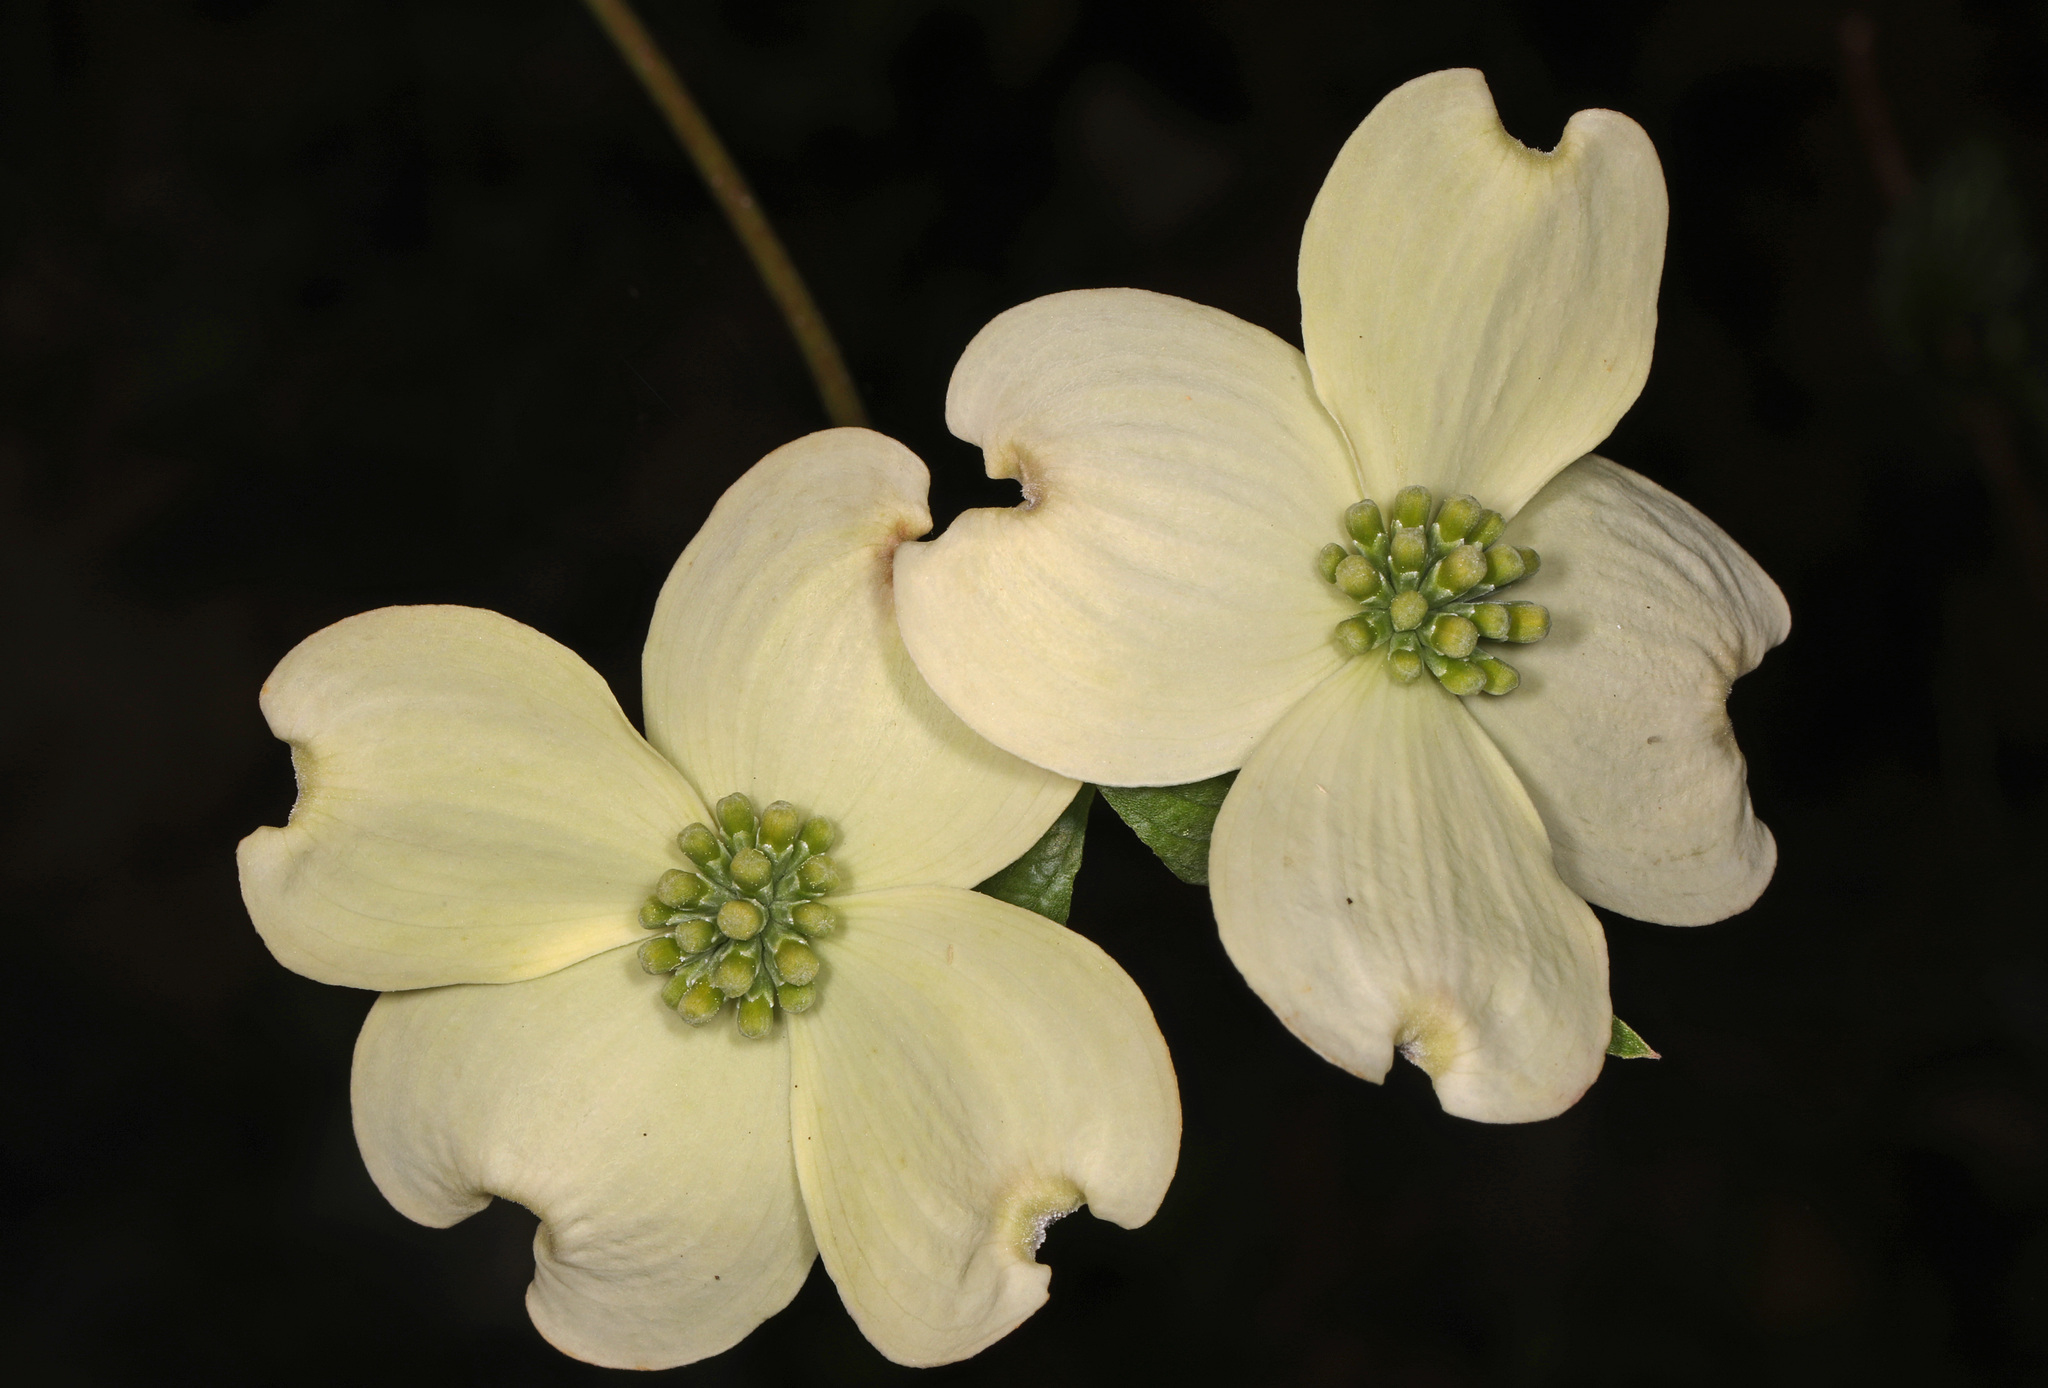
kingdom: Plantae
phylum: Tracheophyta
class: Magnoliopsida
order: Cornales
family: Cornaceae
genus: Cornus
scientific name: Cornus florida
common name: Flowering dogwood
